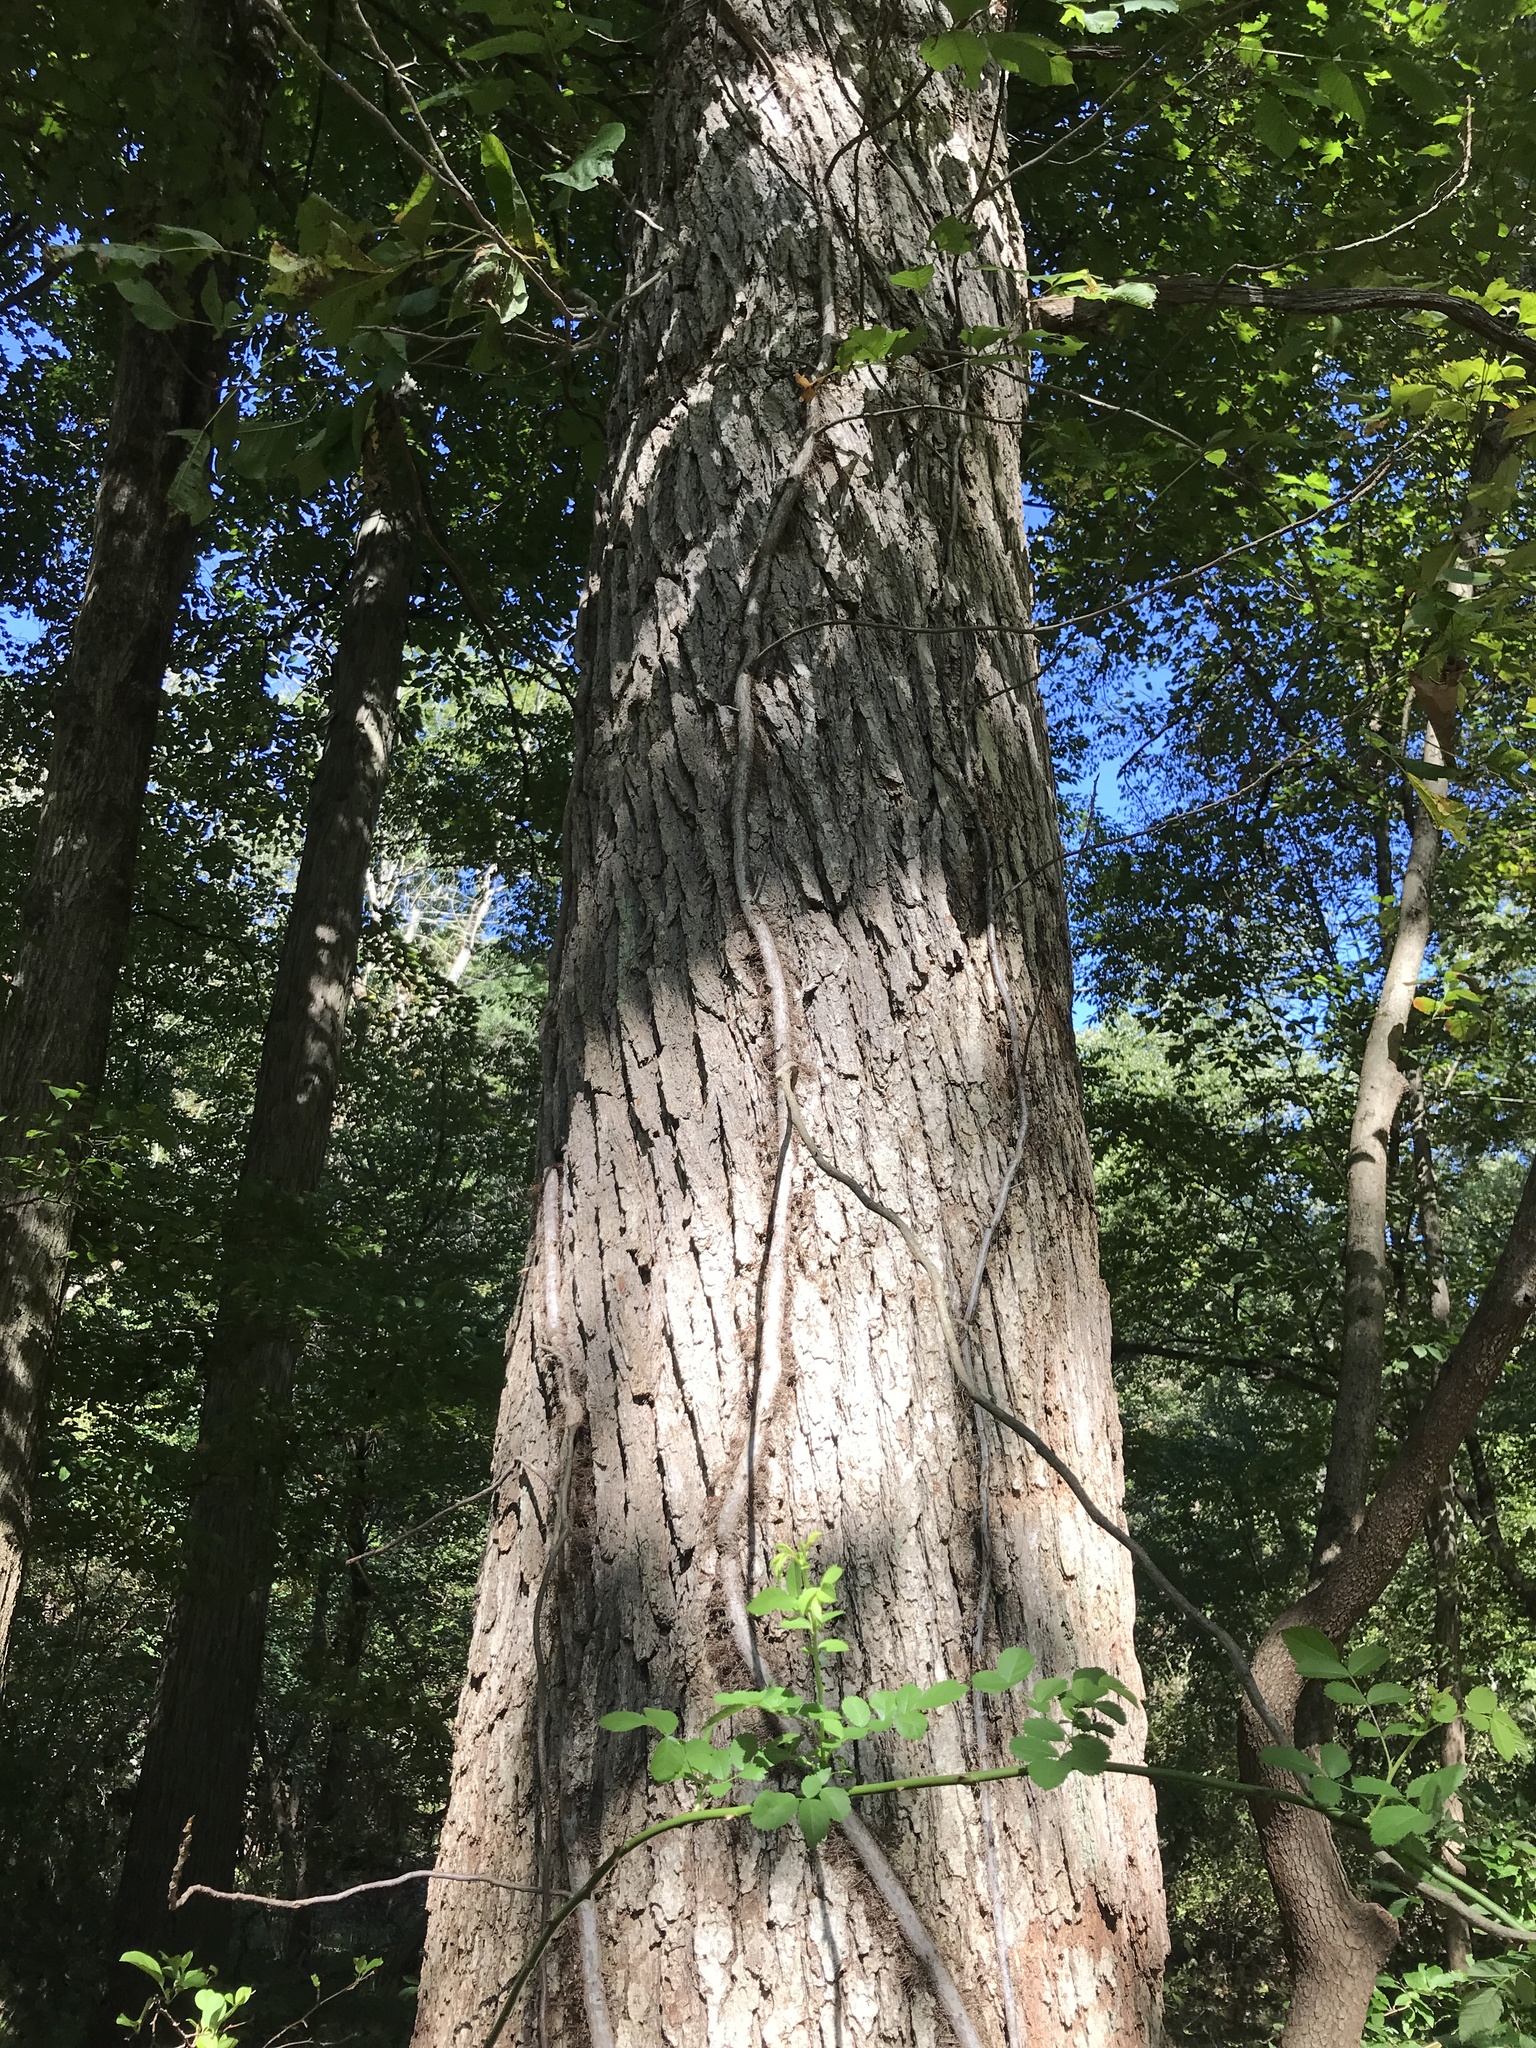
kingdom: Plantae
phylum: Tracheophyta
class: Magnoliopsida
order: Fagales
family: Fagaceae
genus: Quercus
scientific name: Quercus bicolor
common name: Swamp white oak
